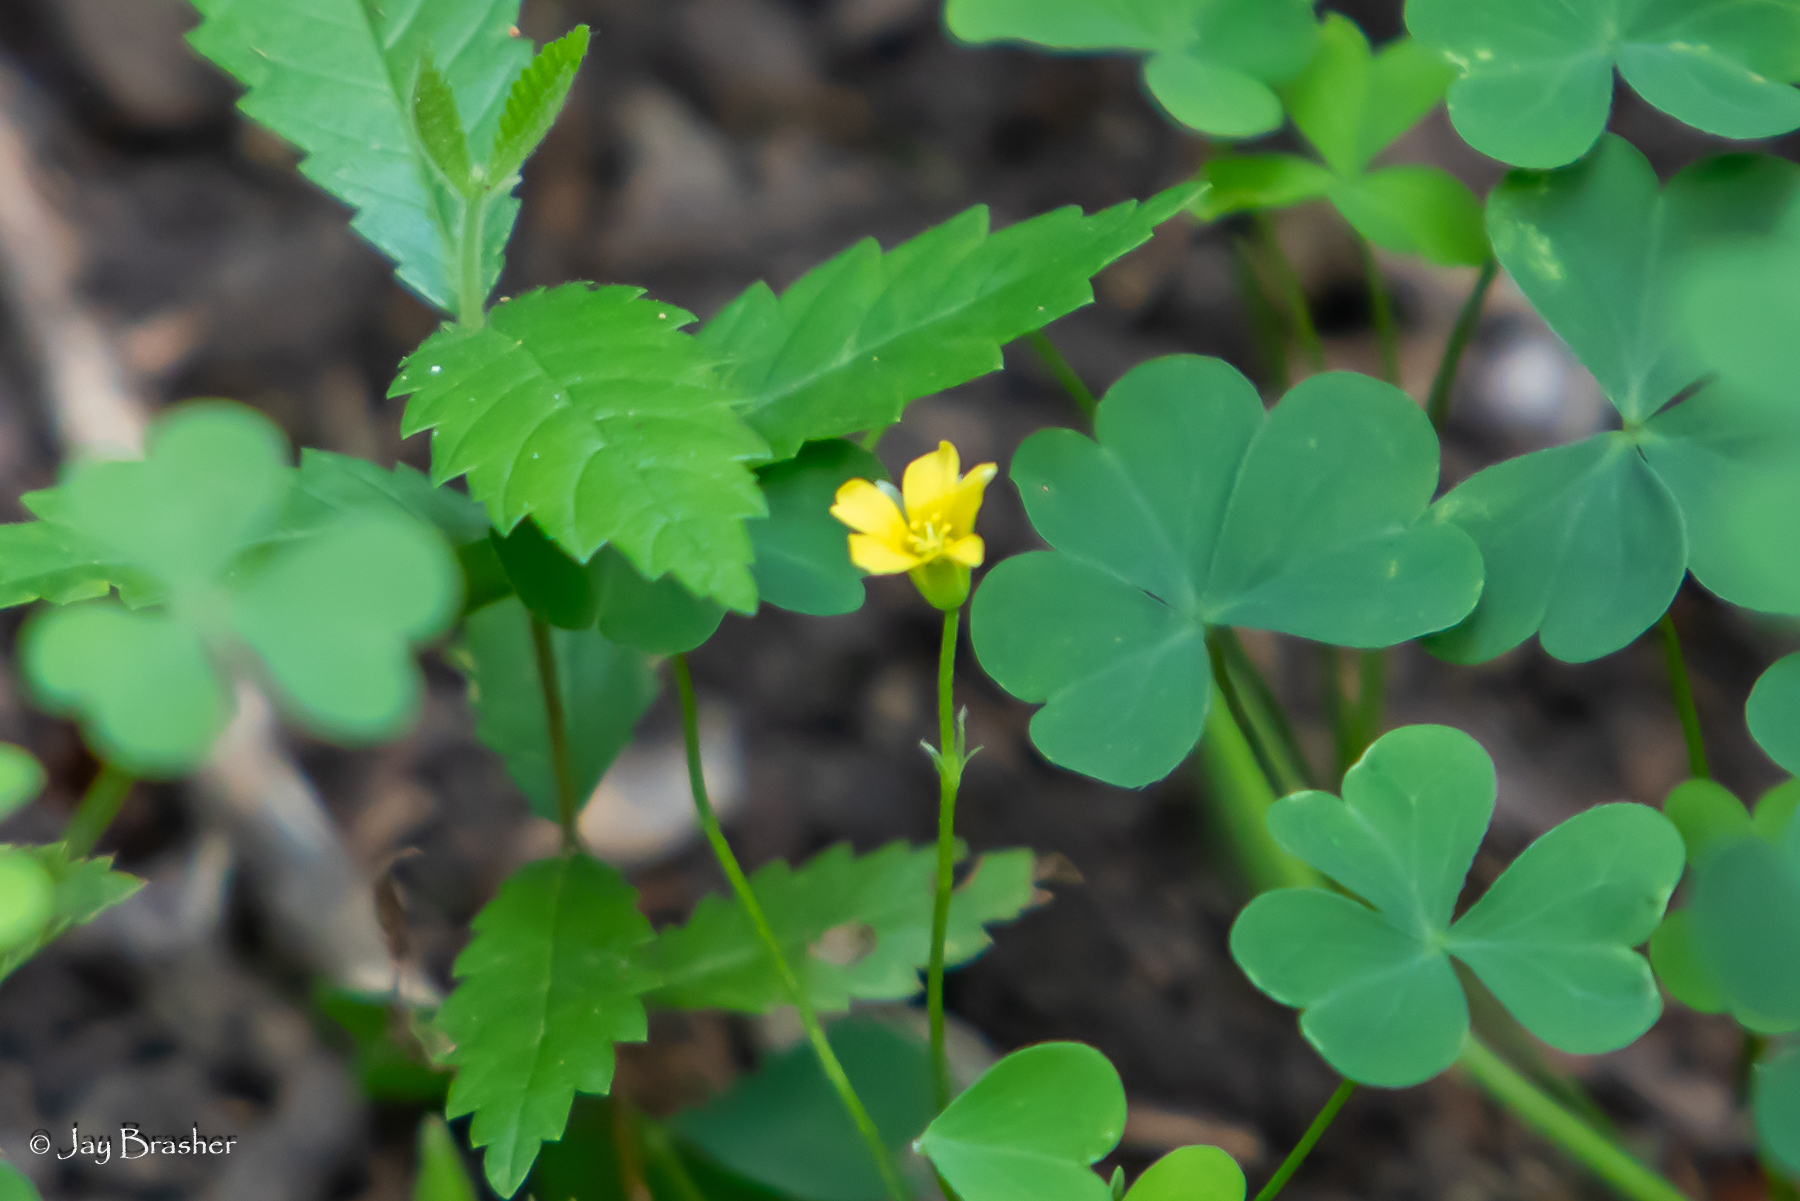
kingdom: Plantae
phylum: Tracheophyta
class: Magnoliopsida
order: Oxalidales
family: Oxalidaceae
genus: Oxalis
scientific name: Oxalis stricta
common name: Upright yellow-sorrel
